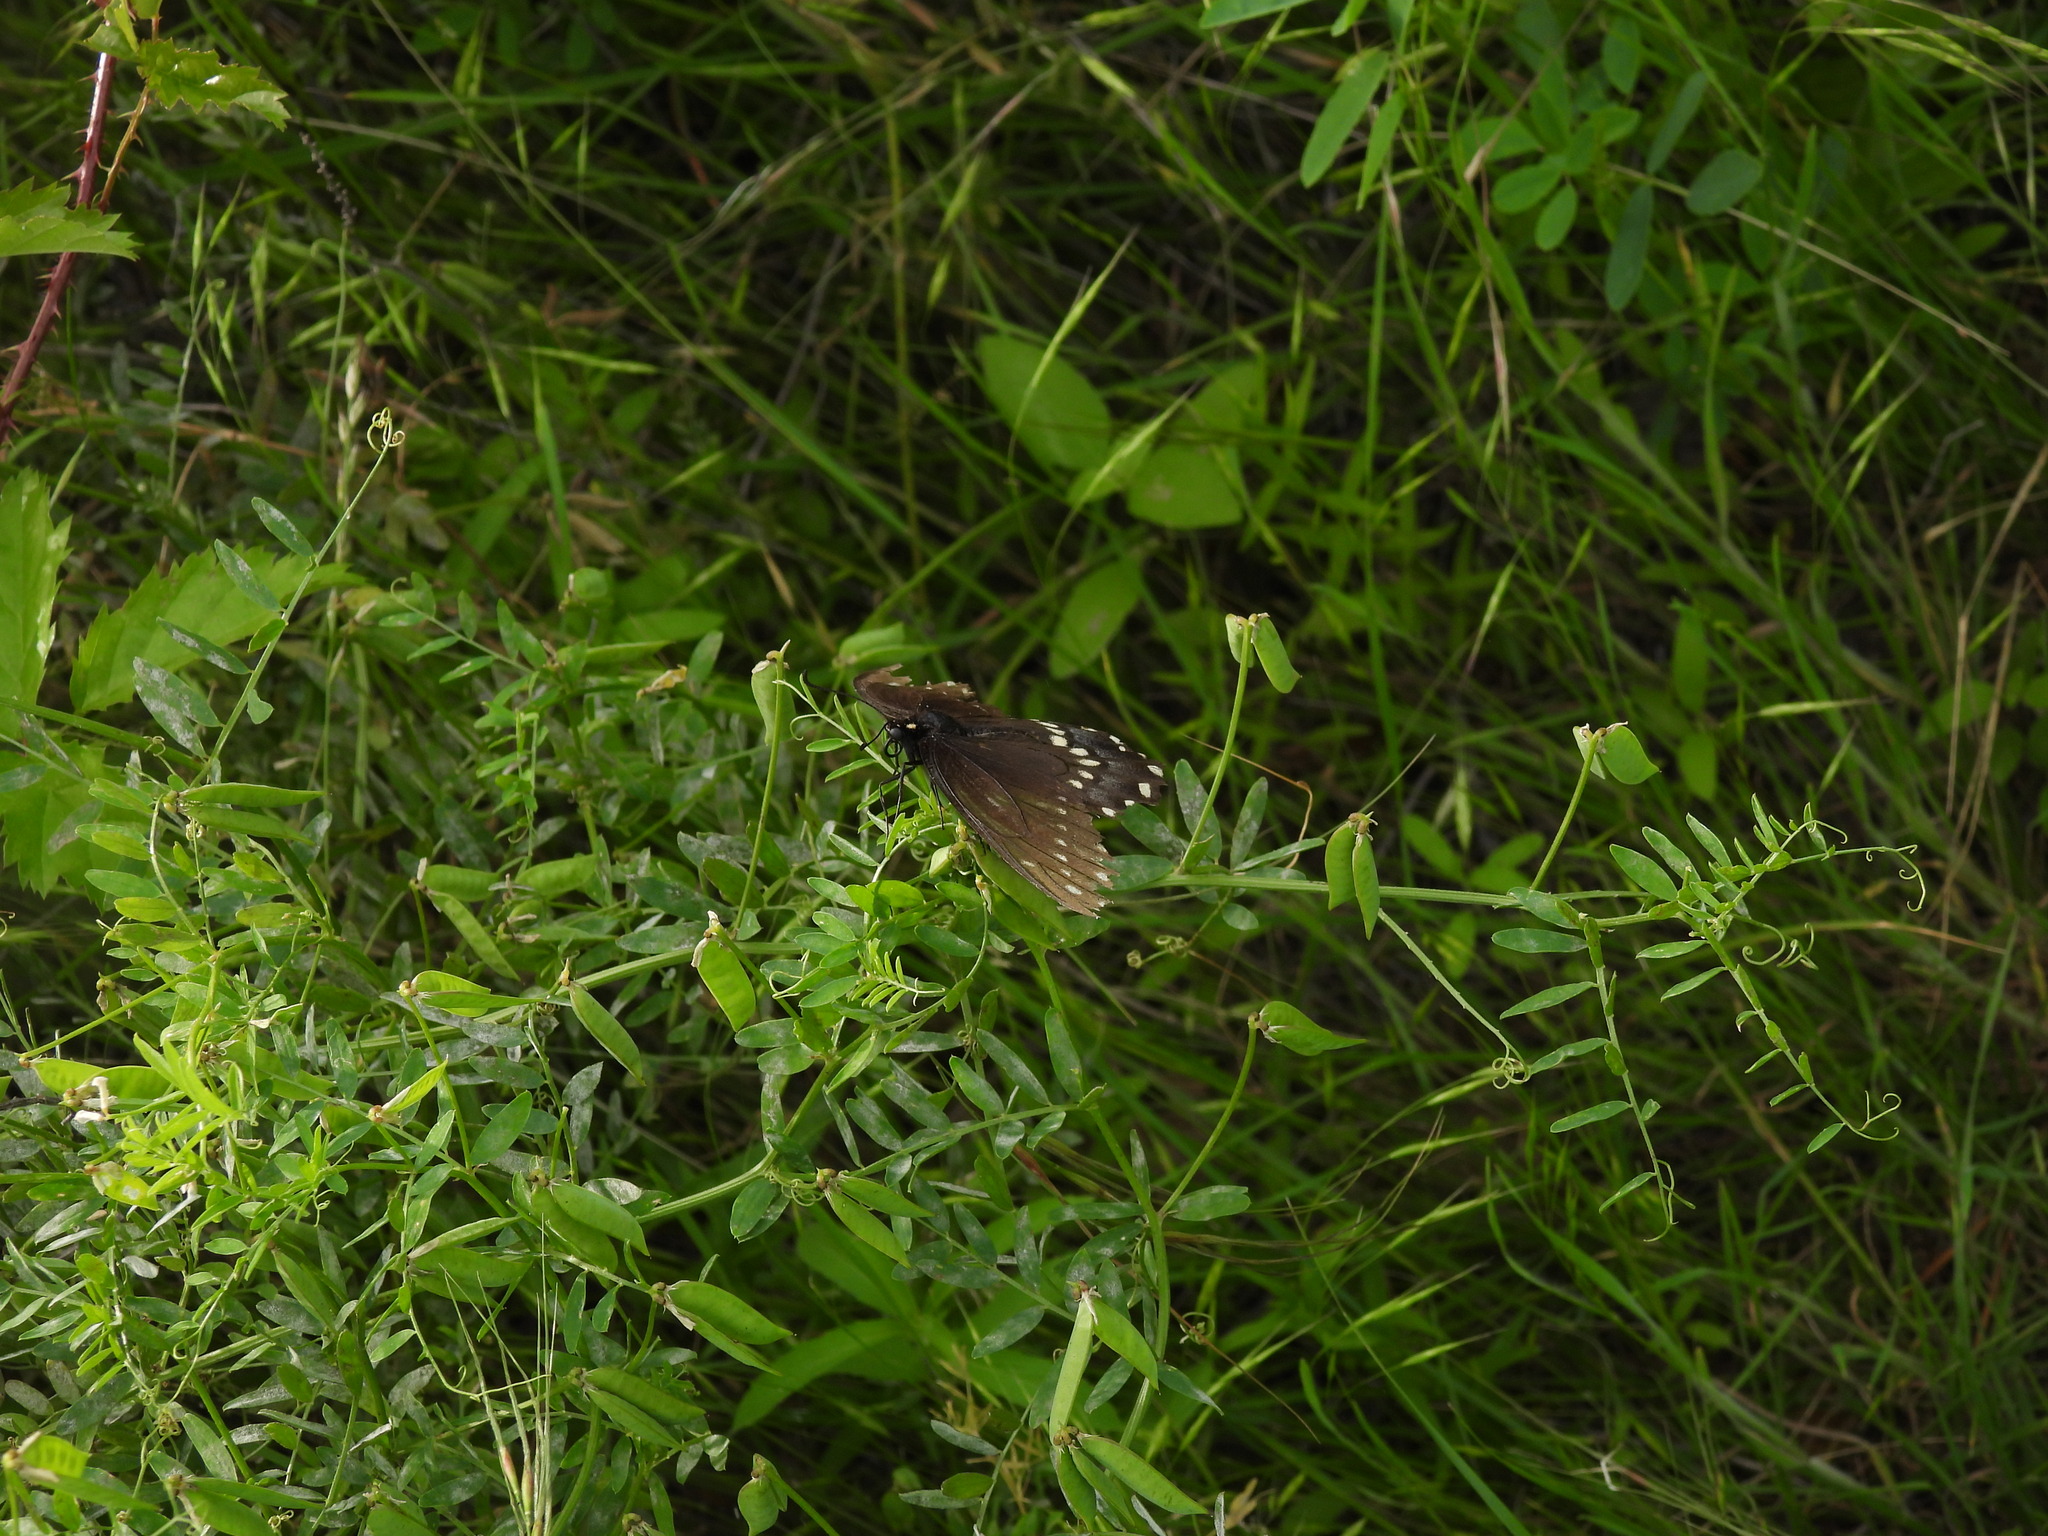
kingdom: Animalia
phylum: Arthropoda
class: Insecta
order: Lepidoptera
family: Papilionidae
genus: Papilio
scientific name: Papilio polyxenes
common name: Black swallowtail
